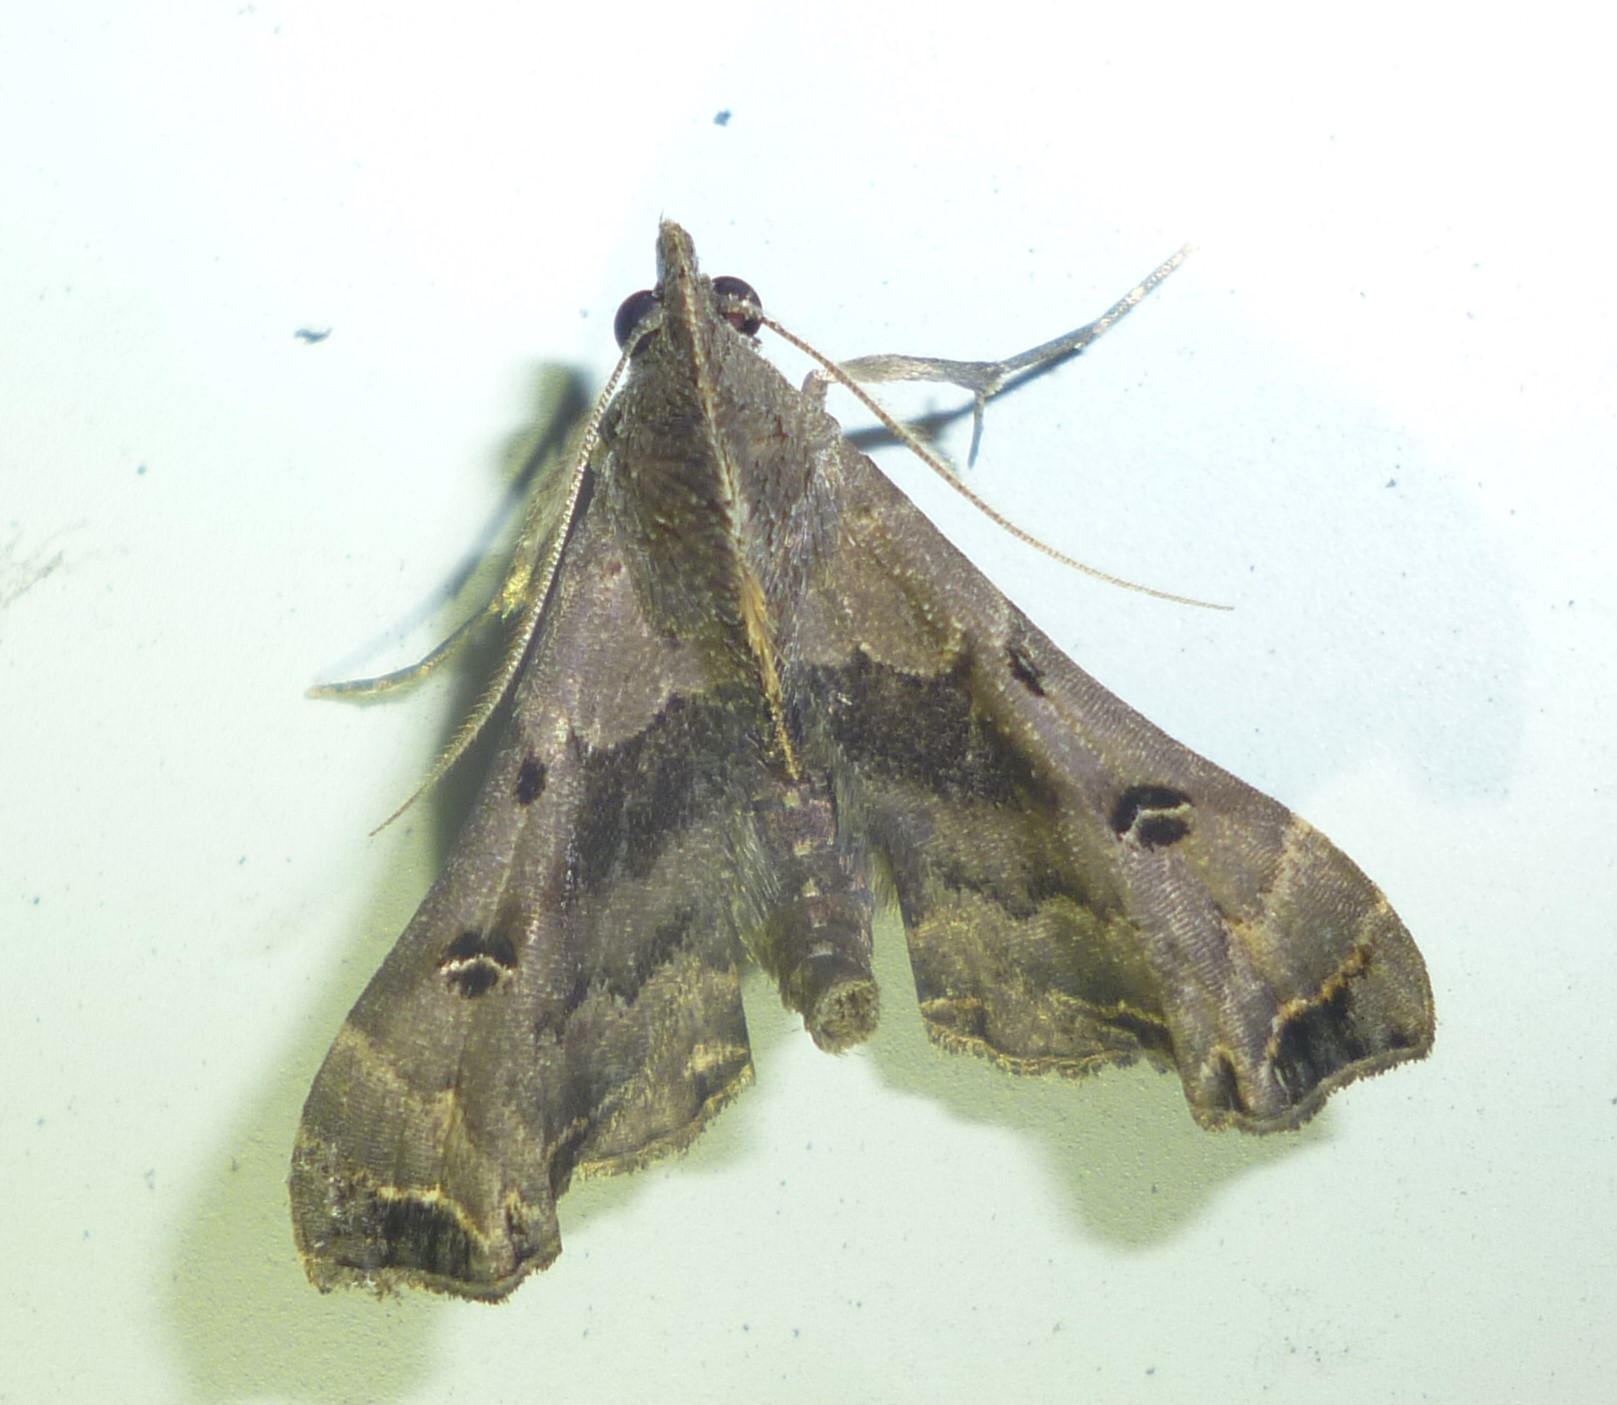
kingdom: Animalia
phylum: Arthropoda
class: Insecta
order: Lepidoptera
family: Erebidae
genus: Palthis
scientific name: Palthis asopialis
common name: Faint-spotted palthis moth
